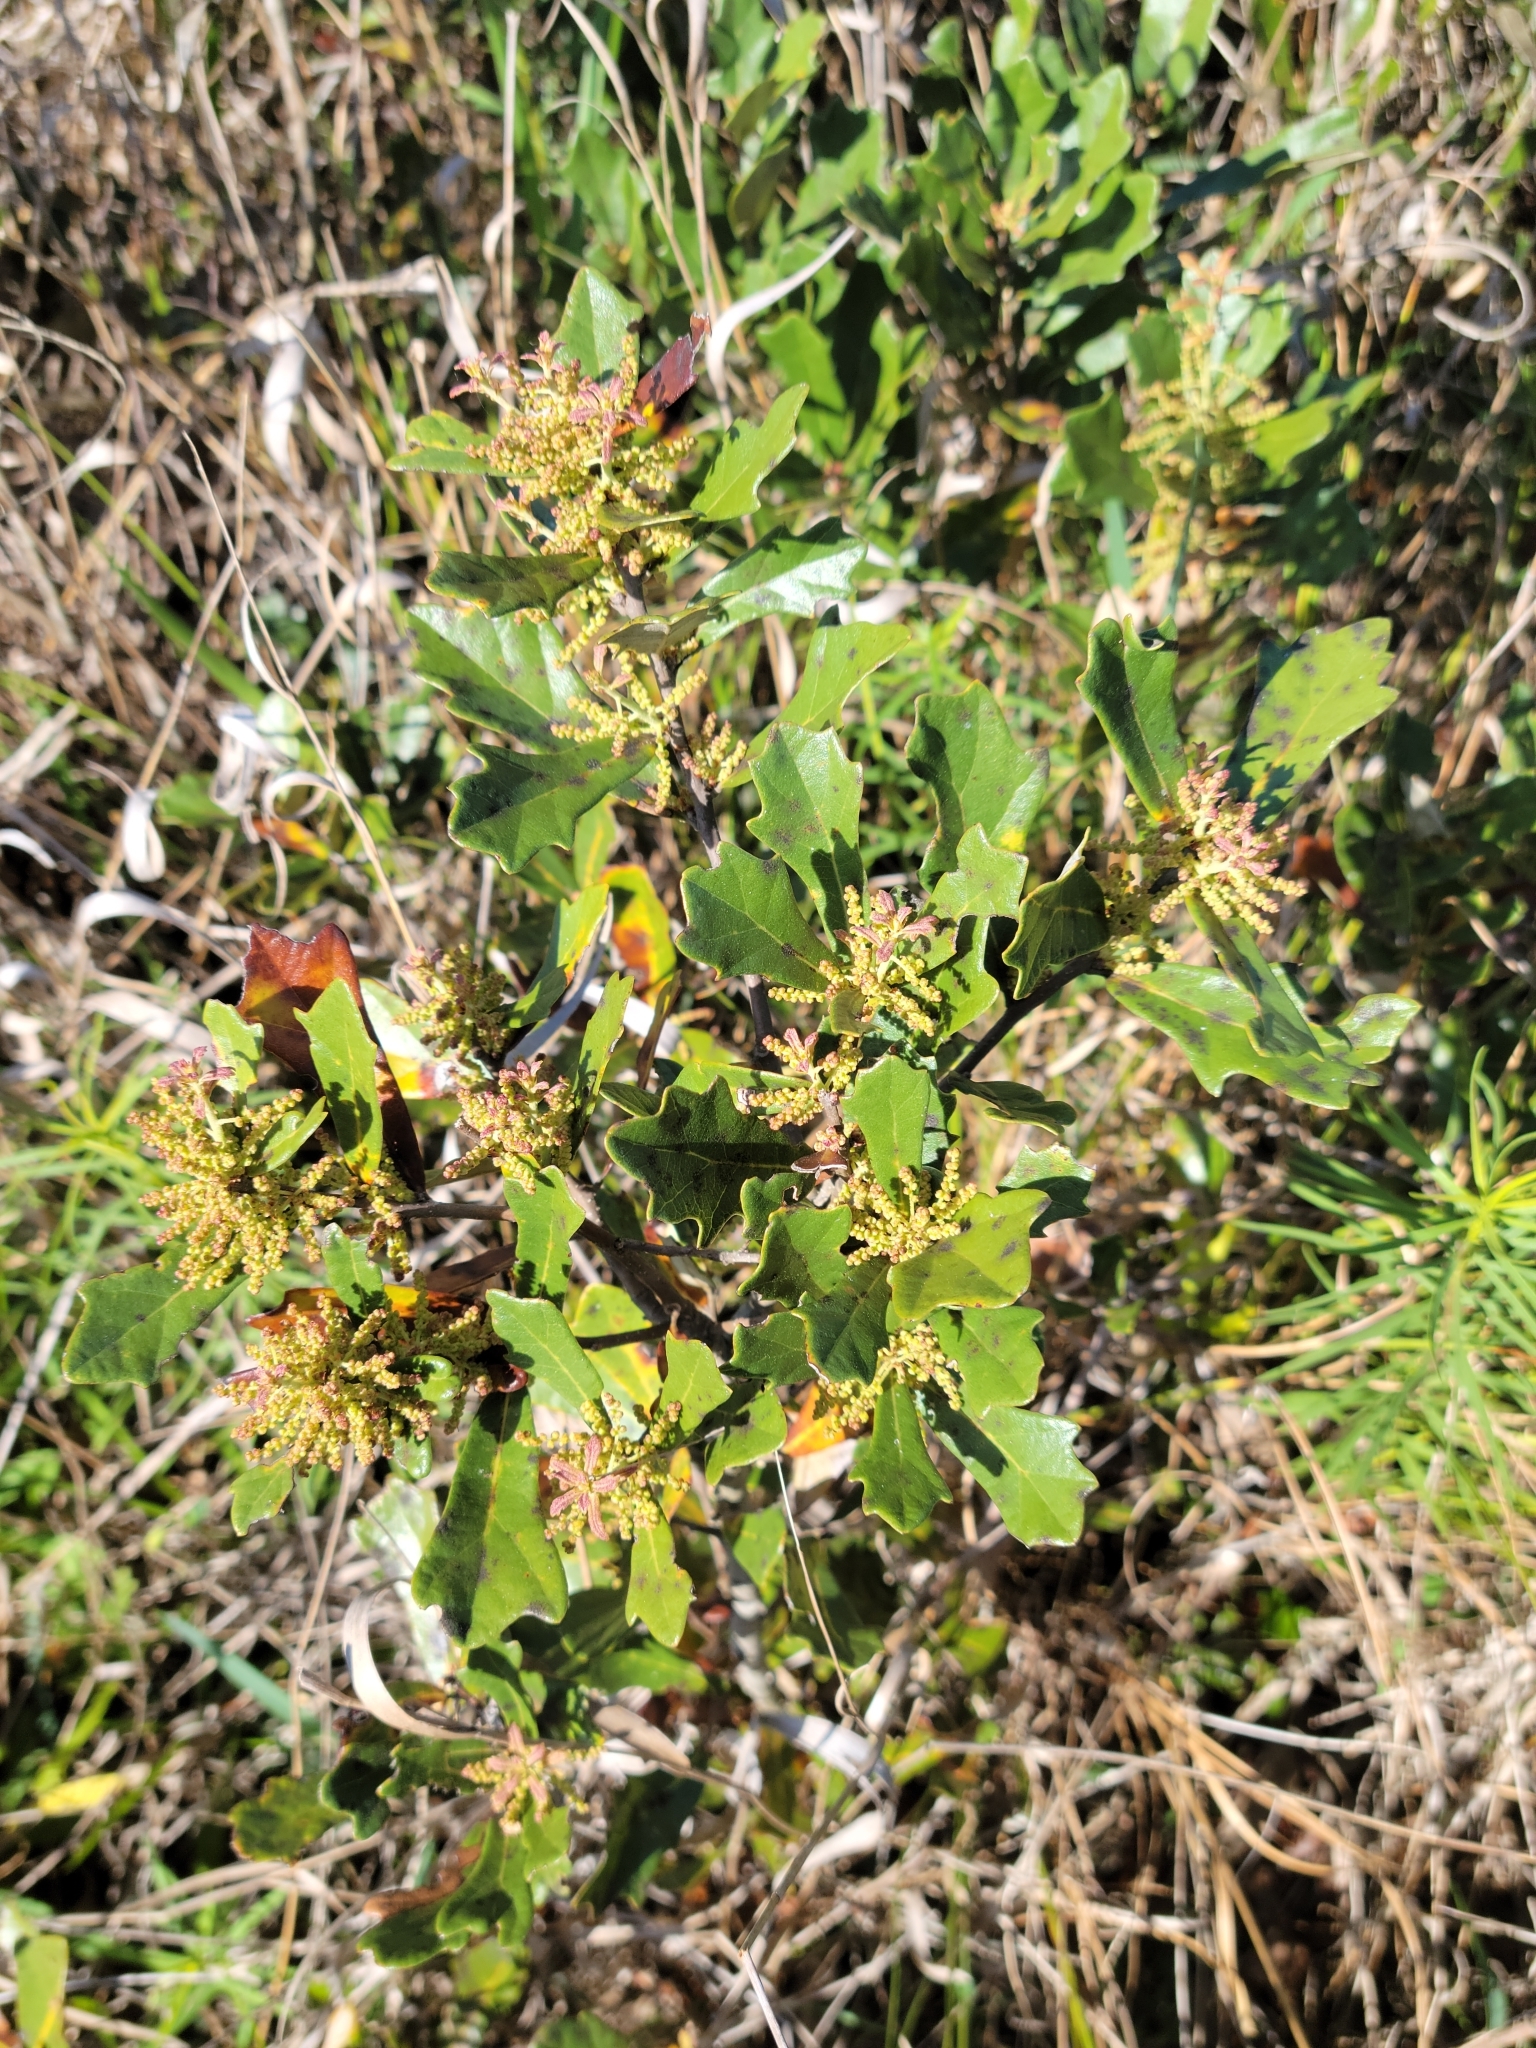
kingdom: Plantae
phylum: Tracheophyta
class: Magnoliopsida
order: Fagales
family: Fagaceae
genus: Quercus
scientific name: Quercus minima
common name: Dwarf live oak
